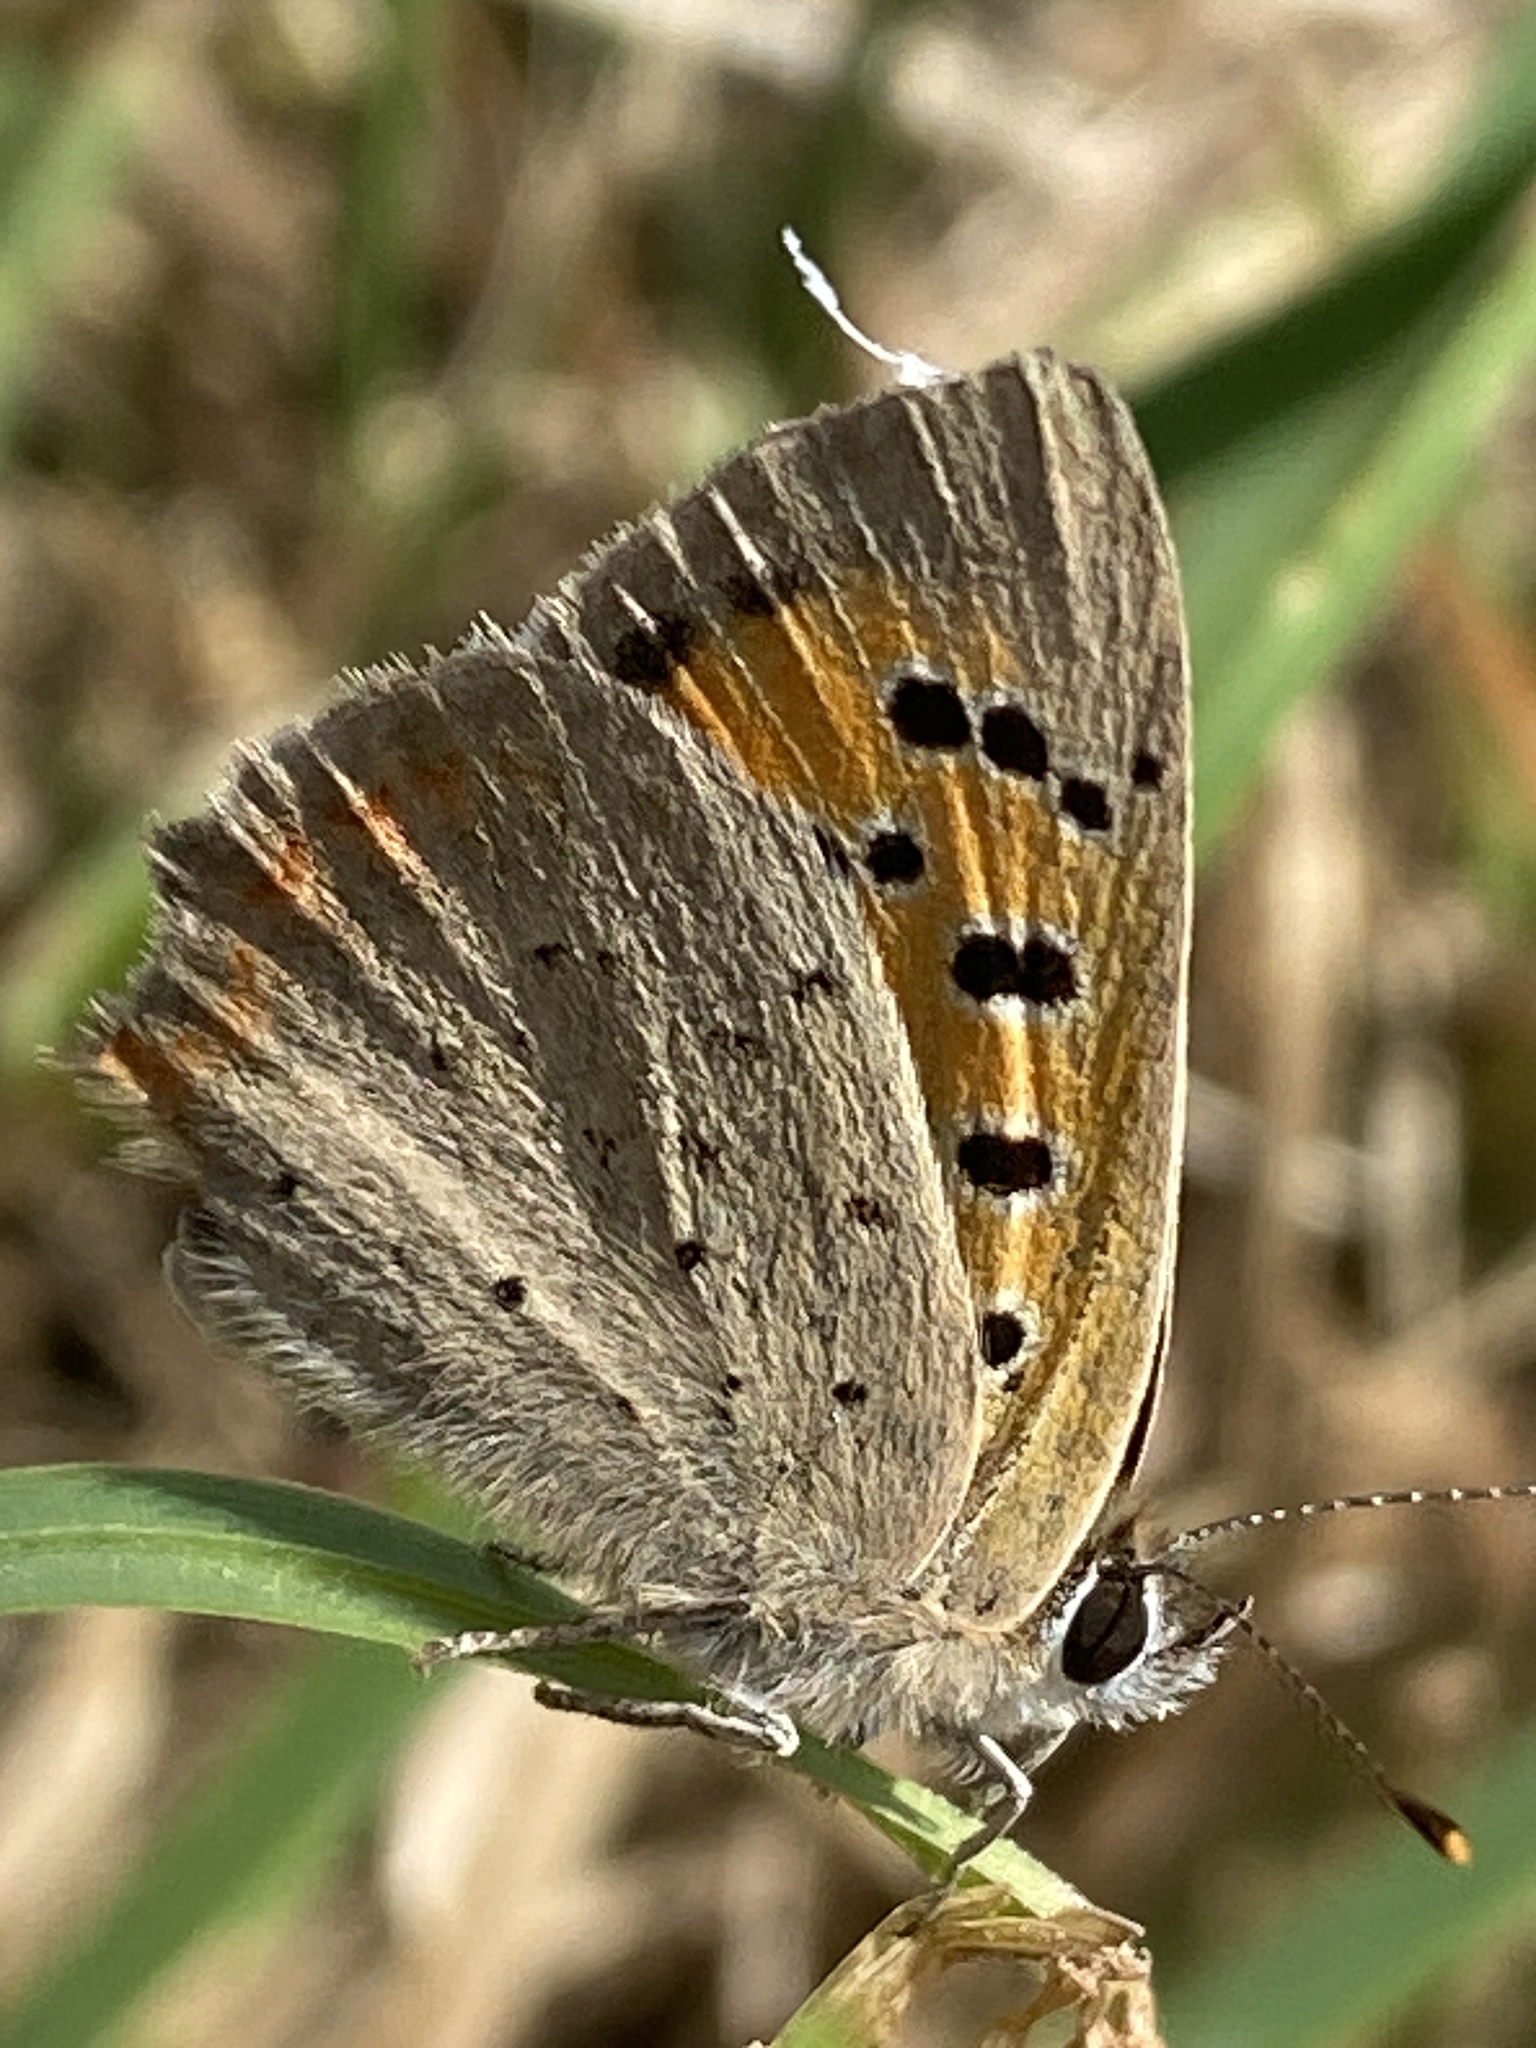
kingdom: Animalia
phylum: Arthropoda
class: Insecta
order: Lepidoptera
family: Lycaenidae
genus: Lycaena
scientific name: Lycaena phlaeas
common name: Small copper
